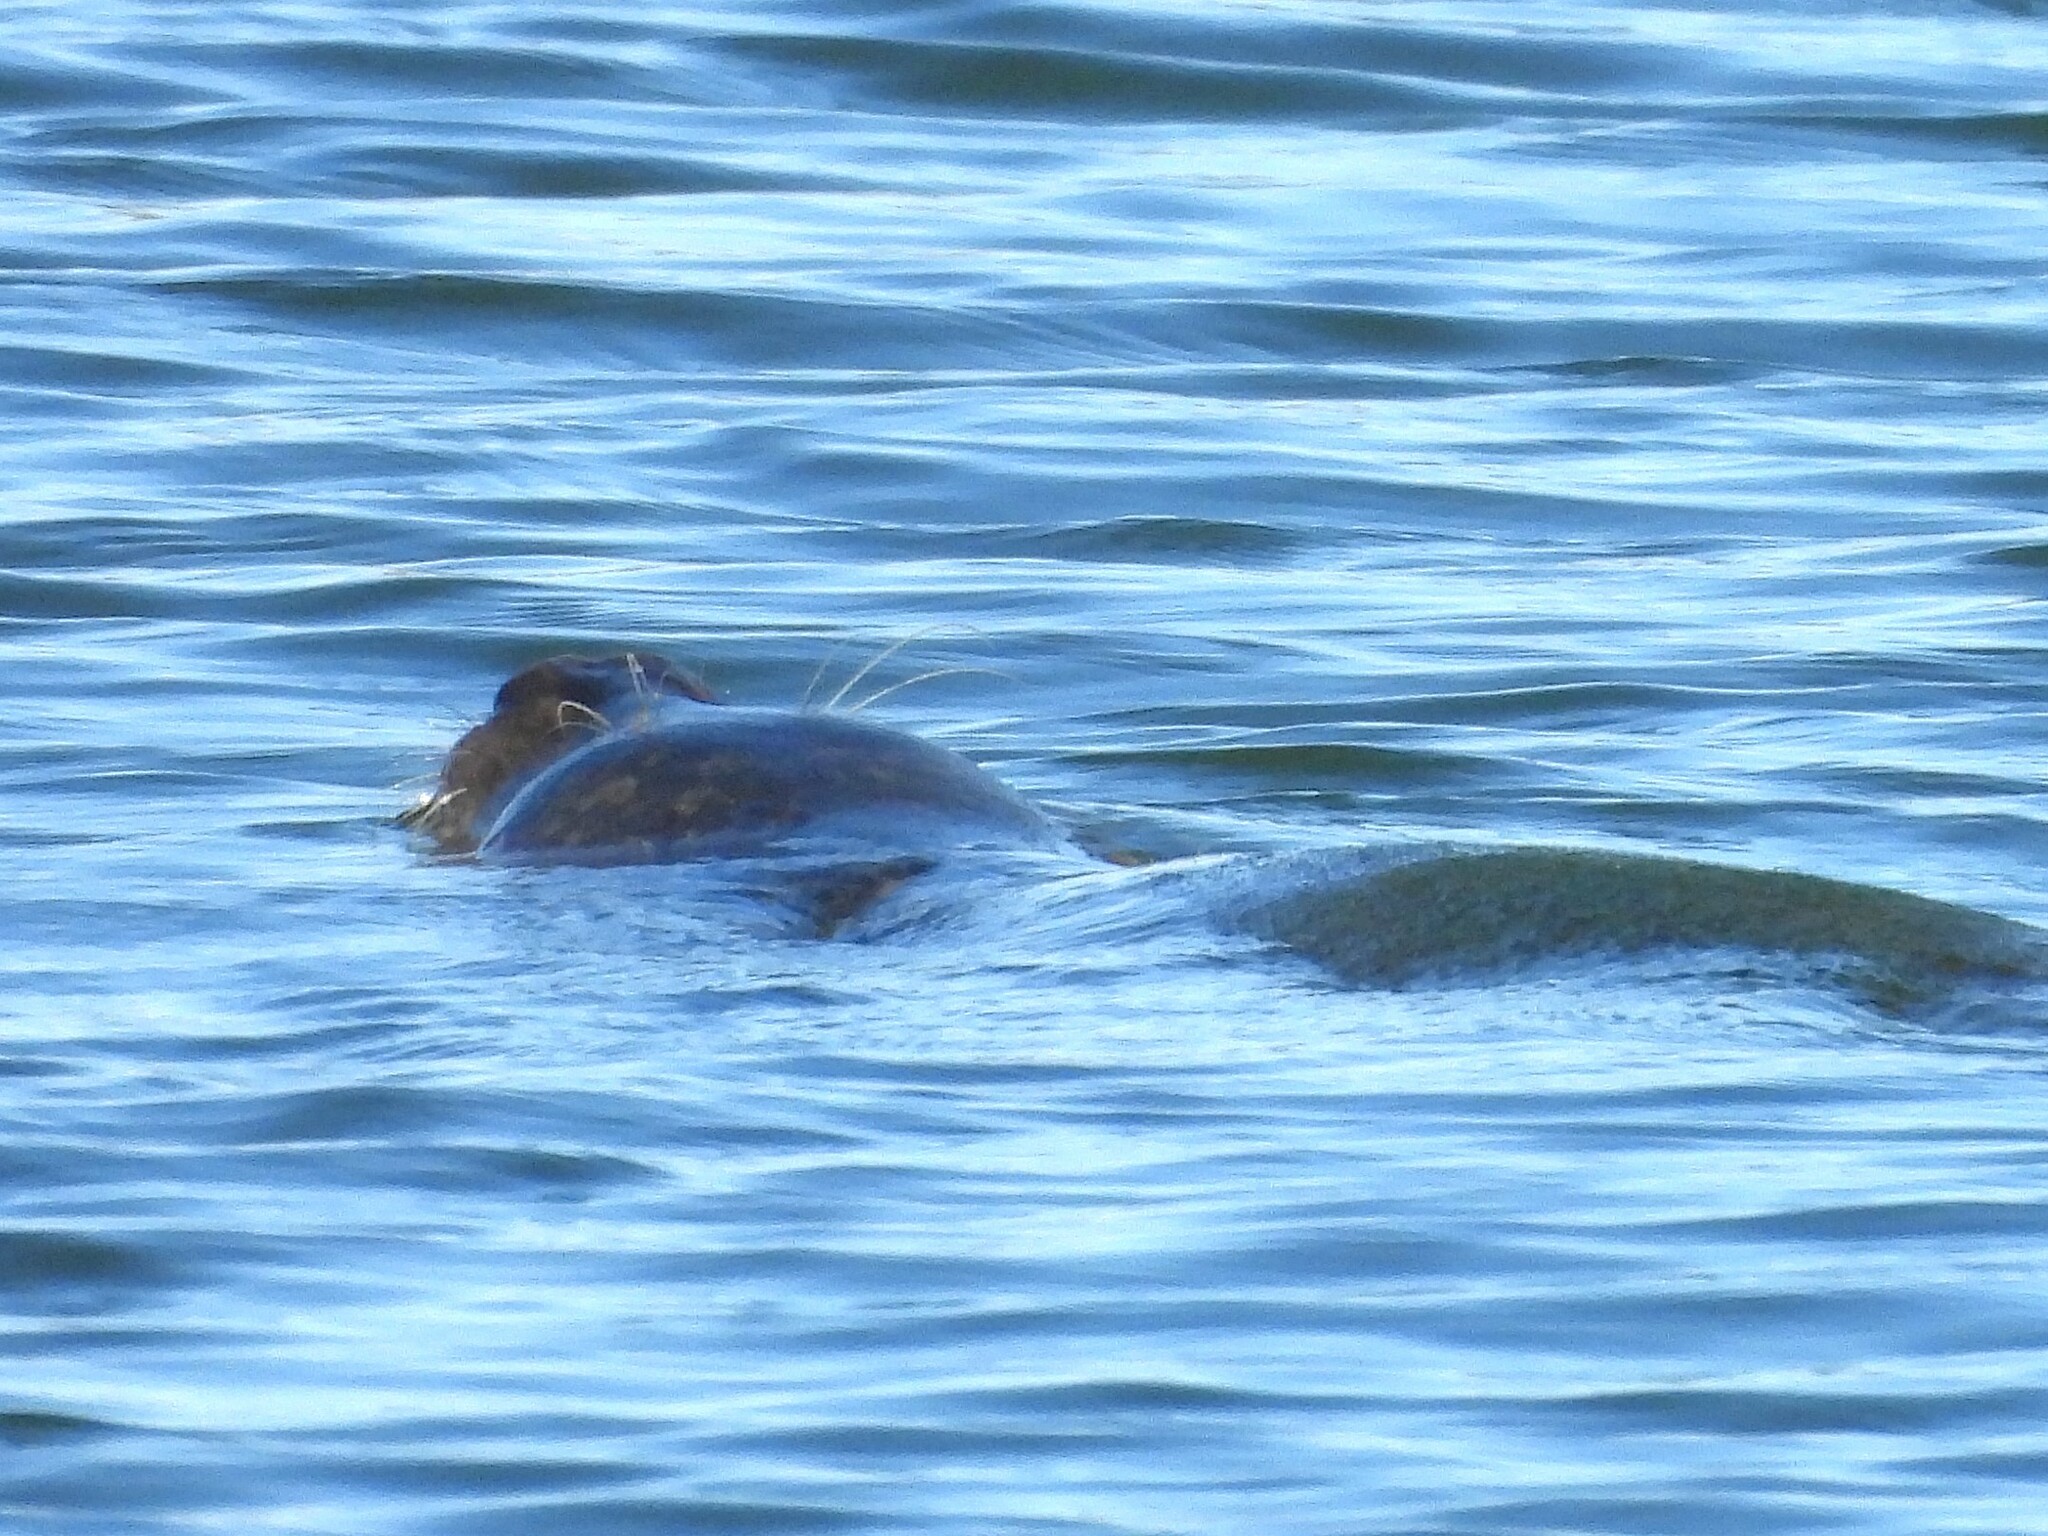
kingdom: Animalia
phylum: Chordata
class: Mammalia
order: Carnivora
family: Phocidae
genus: Phoca
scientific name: Phoca vitulina
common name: Harbor seal
